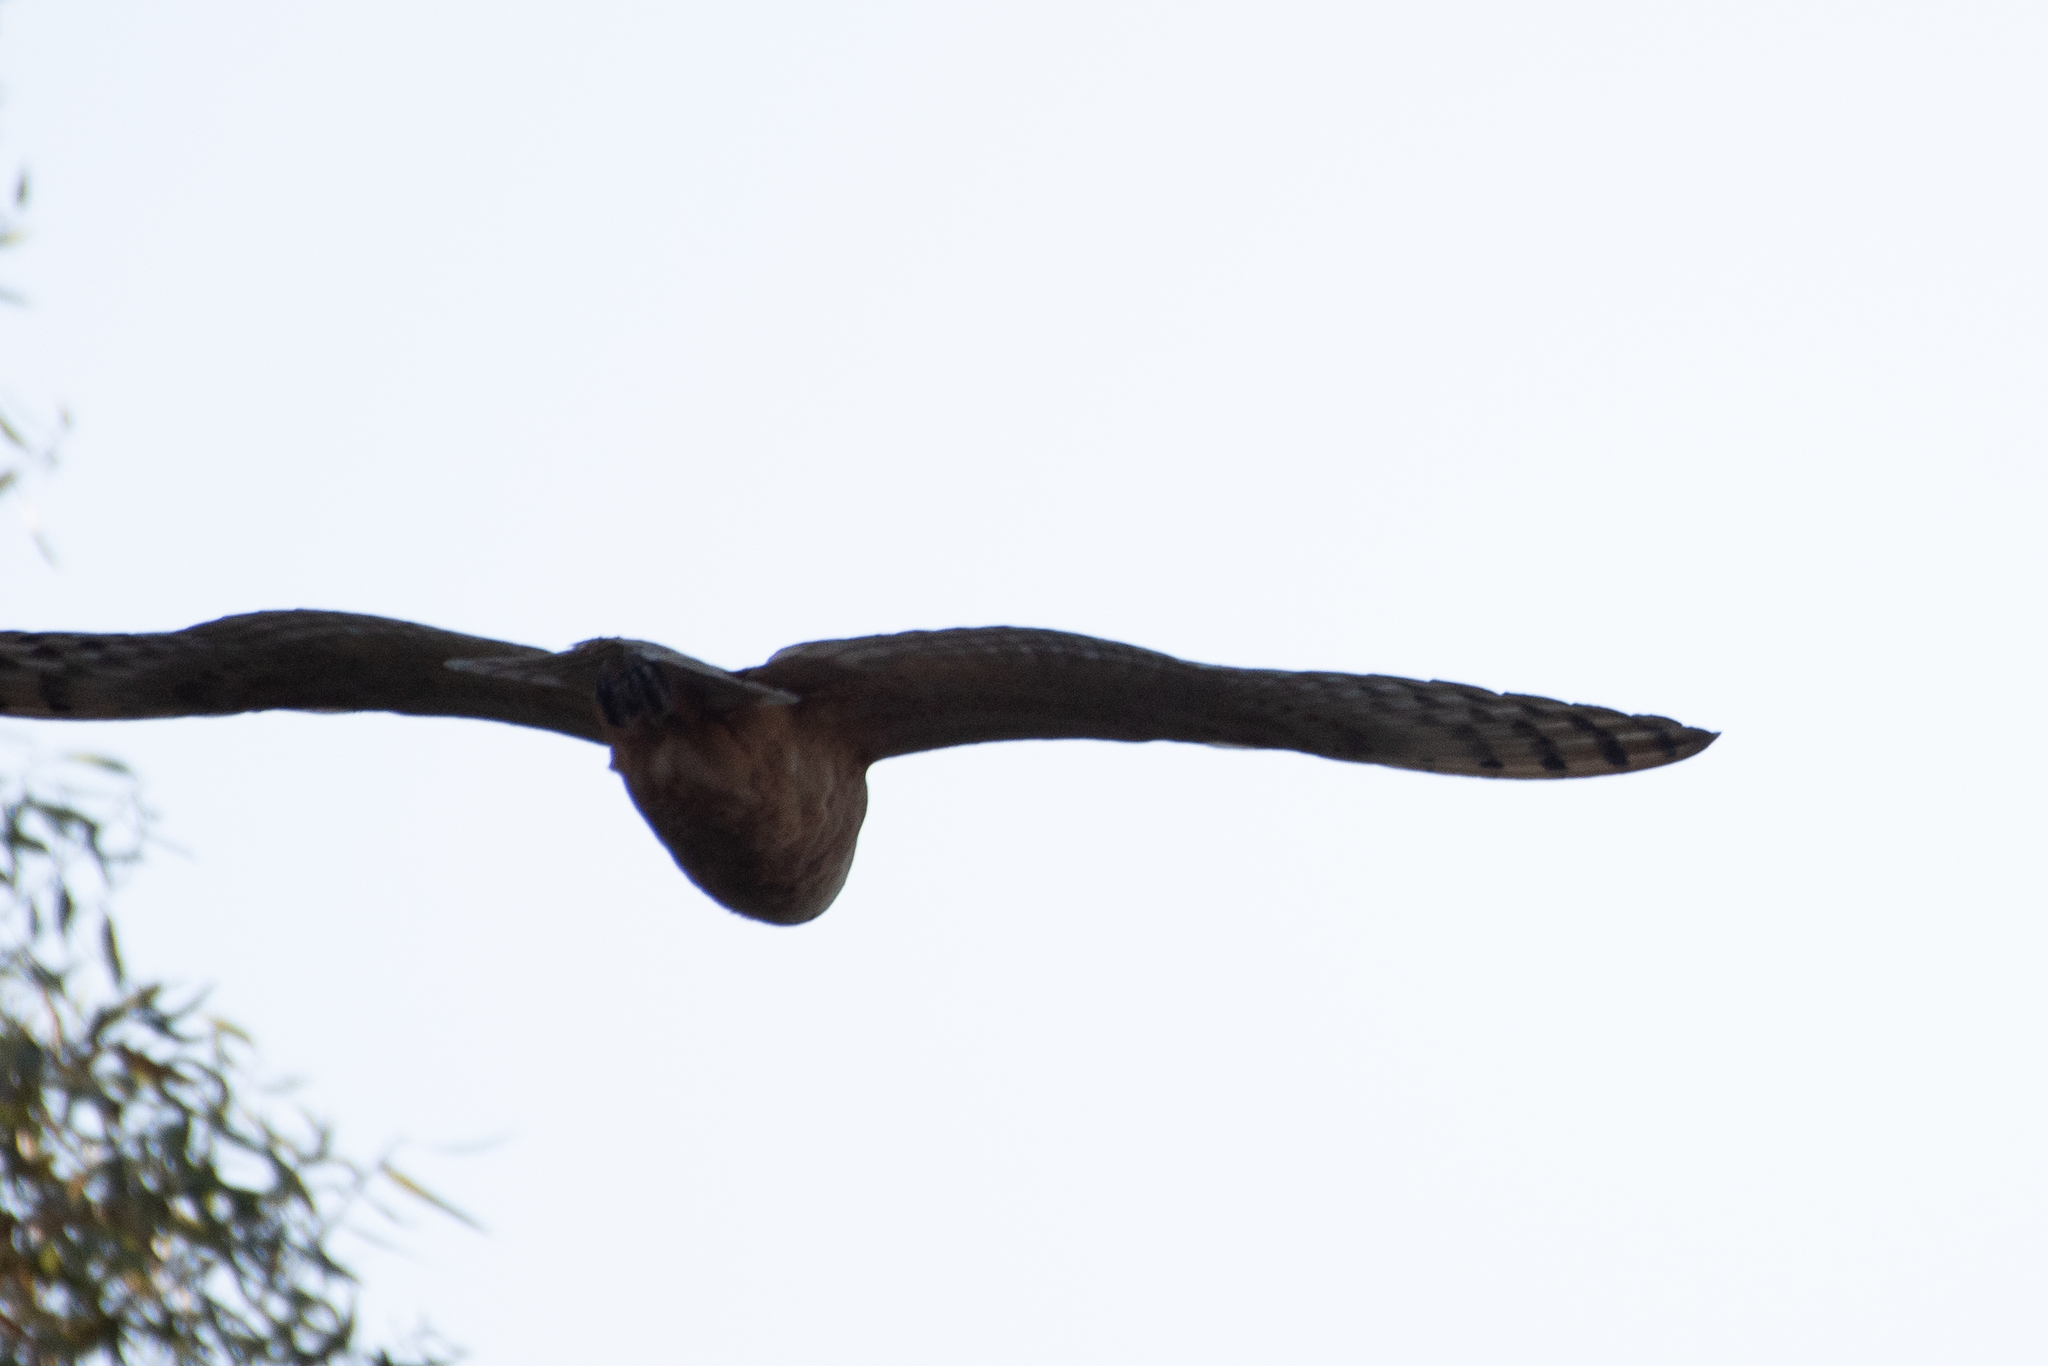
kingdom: Animalia
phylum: Chordata
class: Aves
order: Strigiformes
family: Tytonidae
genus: Tyto
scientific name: Tyto alba
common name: Barn owl
